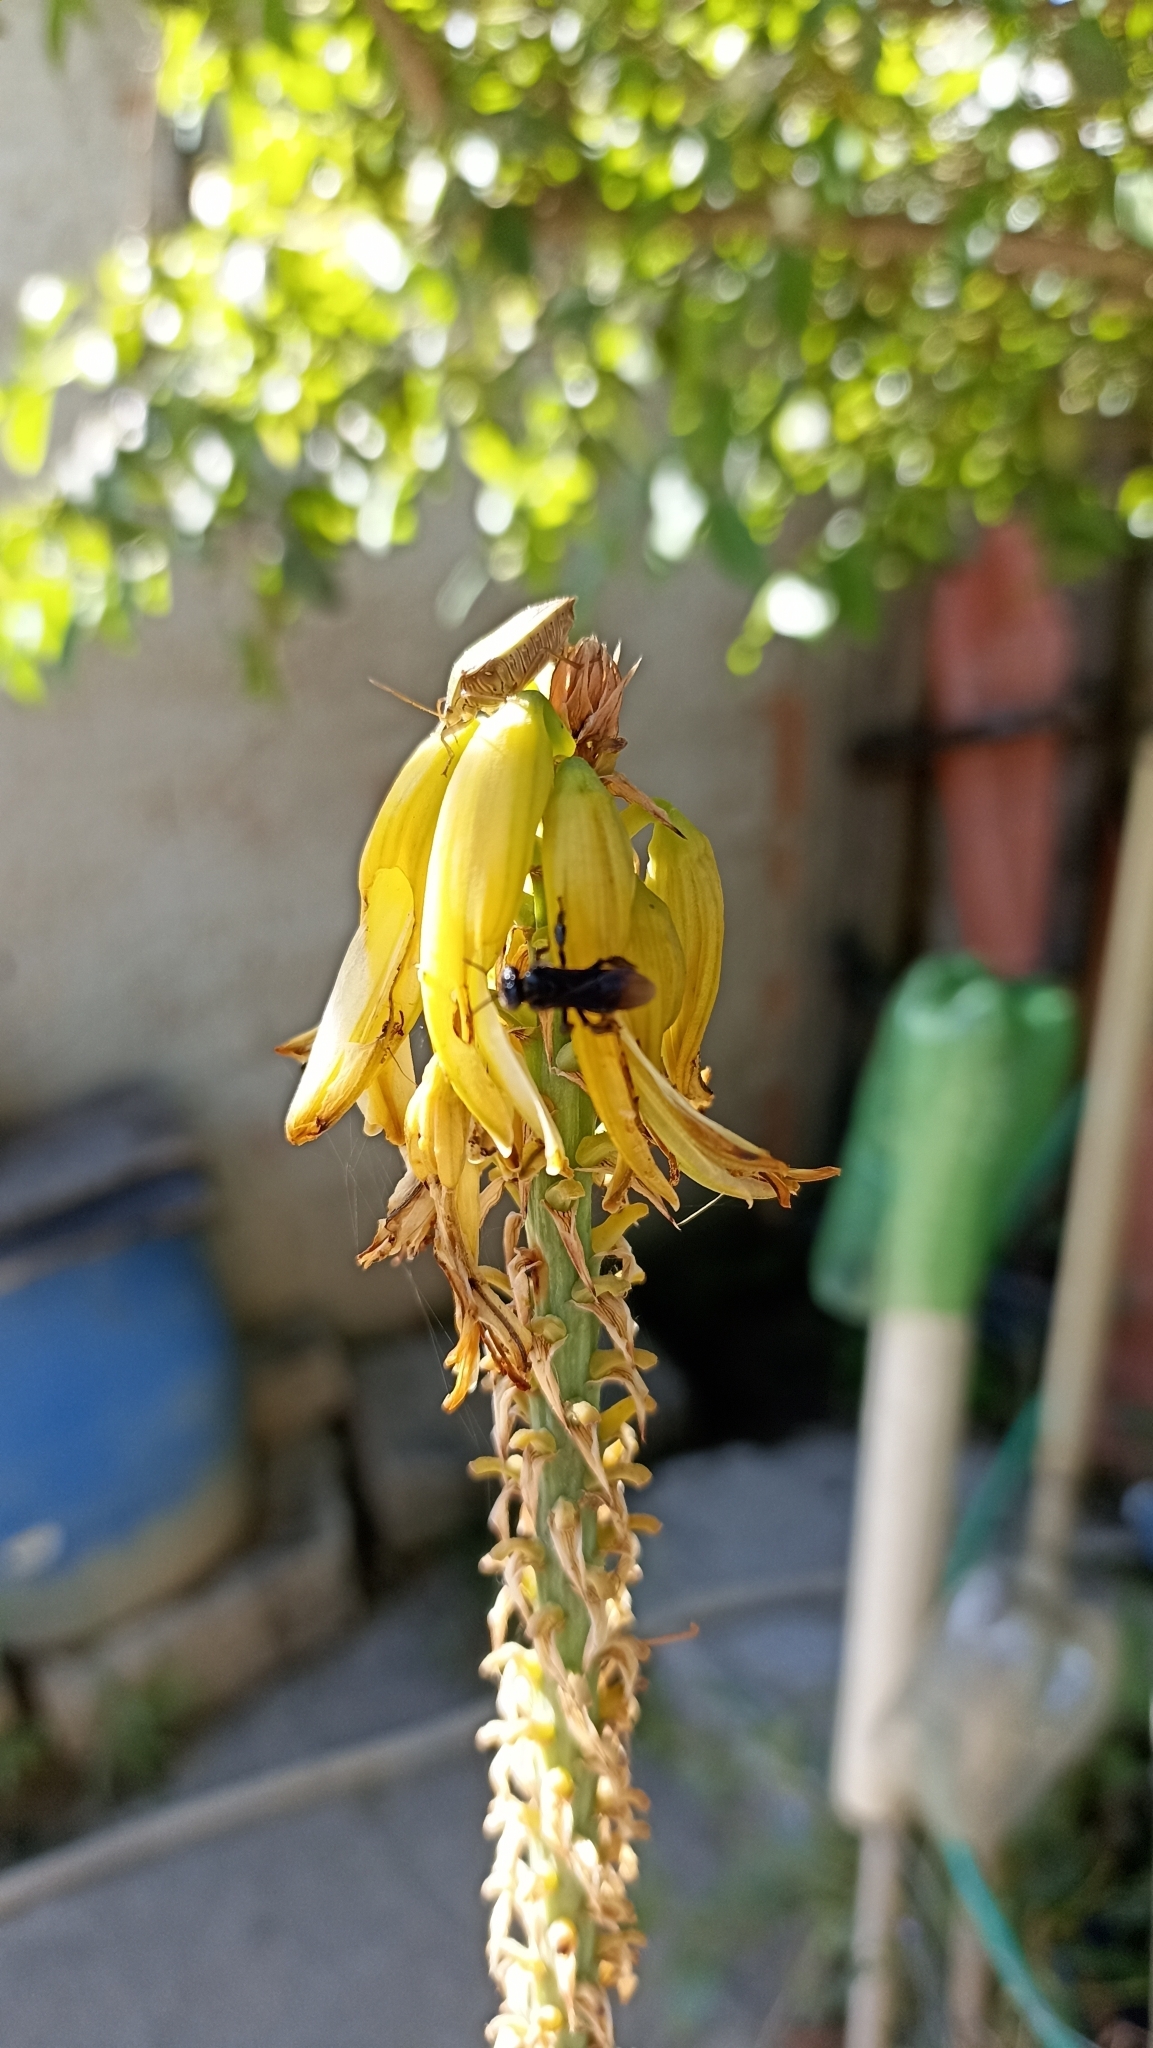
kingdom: Animalia
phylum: Arthropoda
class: Insecta
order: Hymenoptera
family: Apidae
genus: Trigona
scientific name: Trigona spinipes
